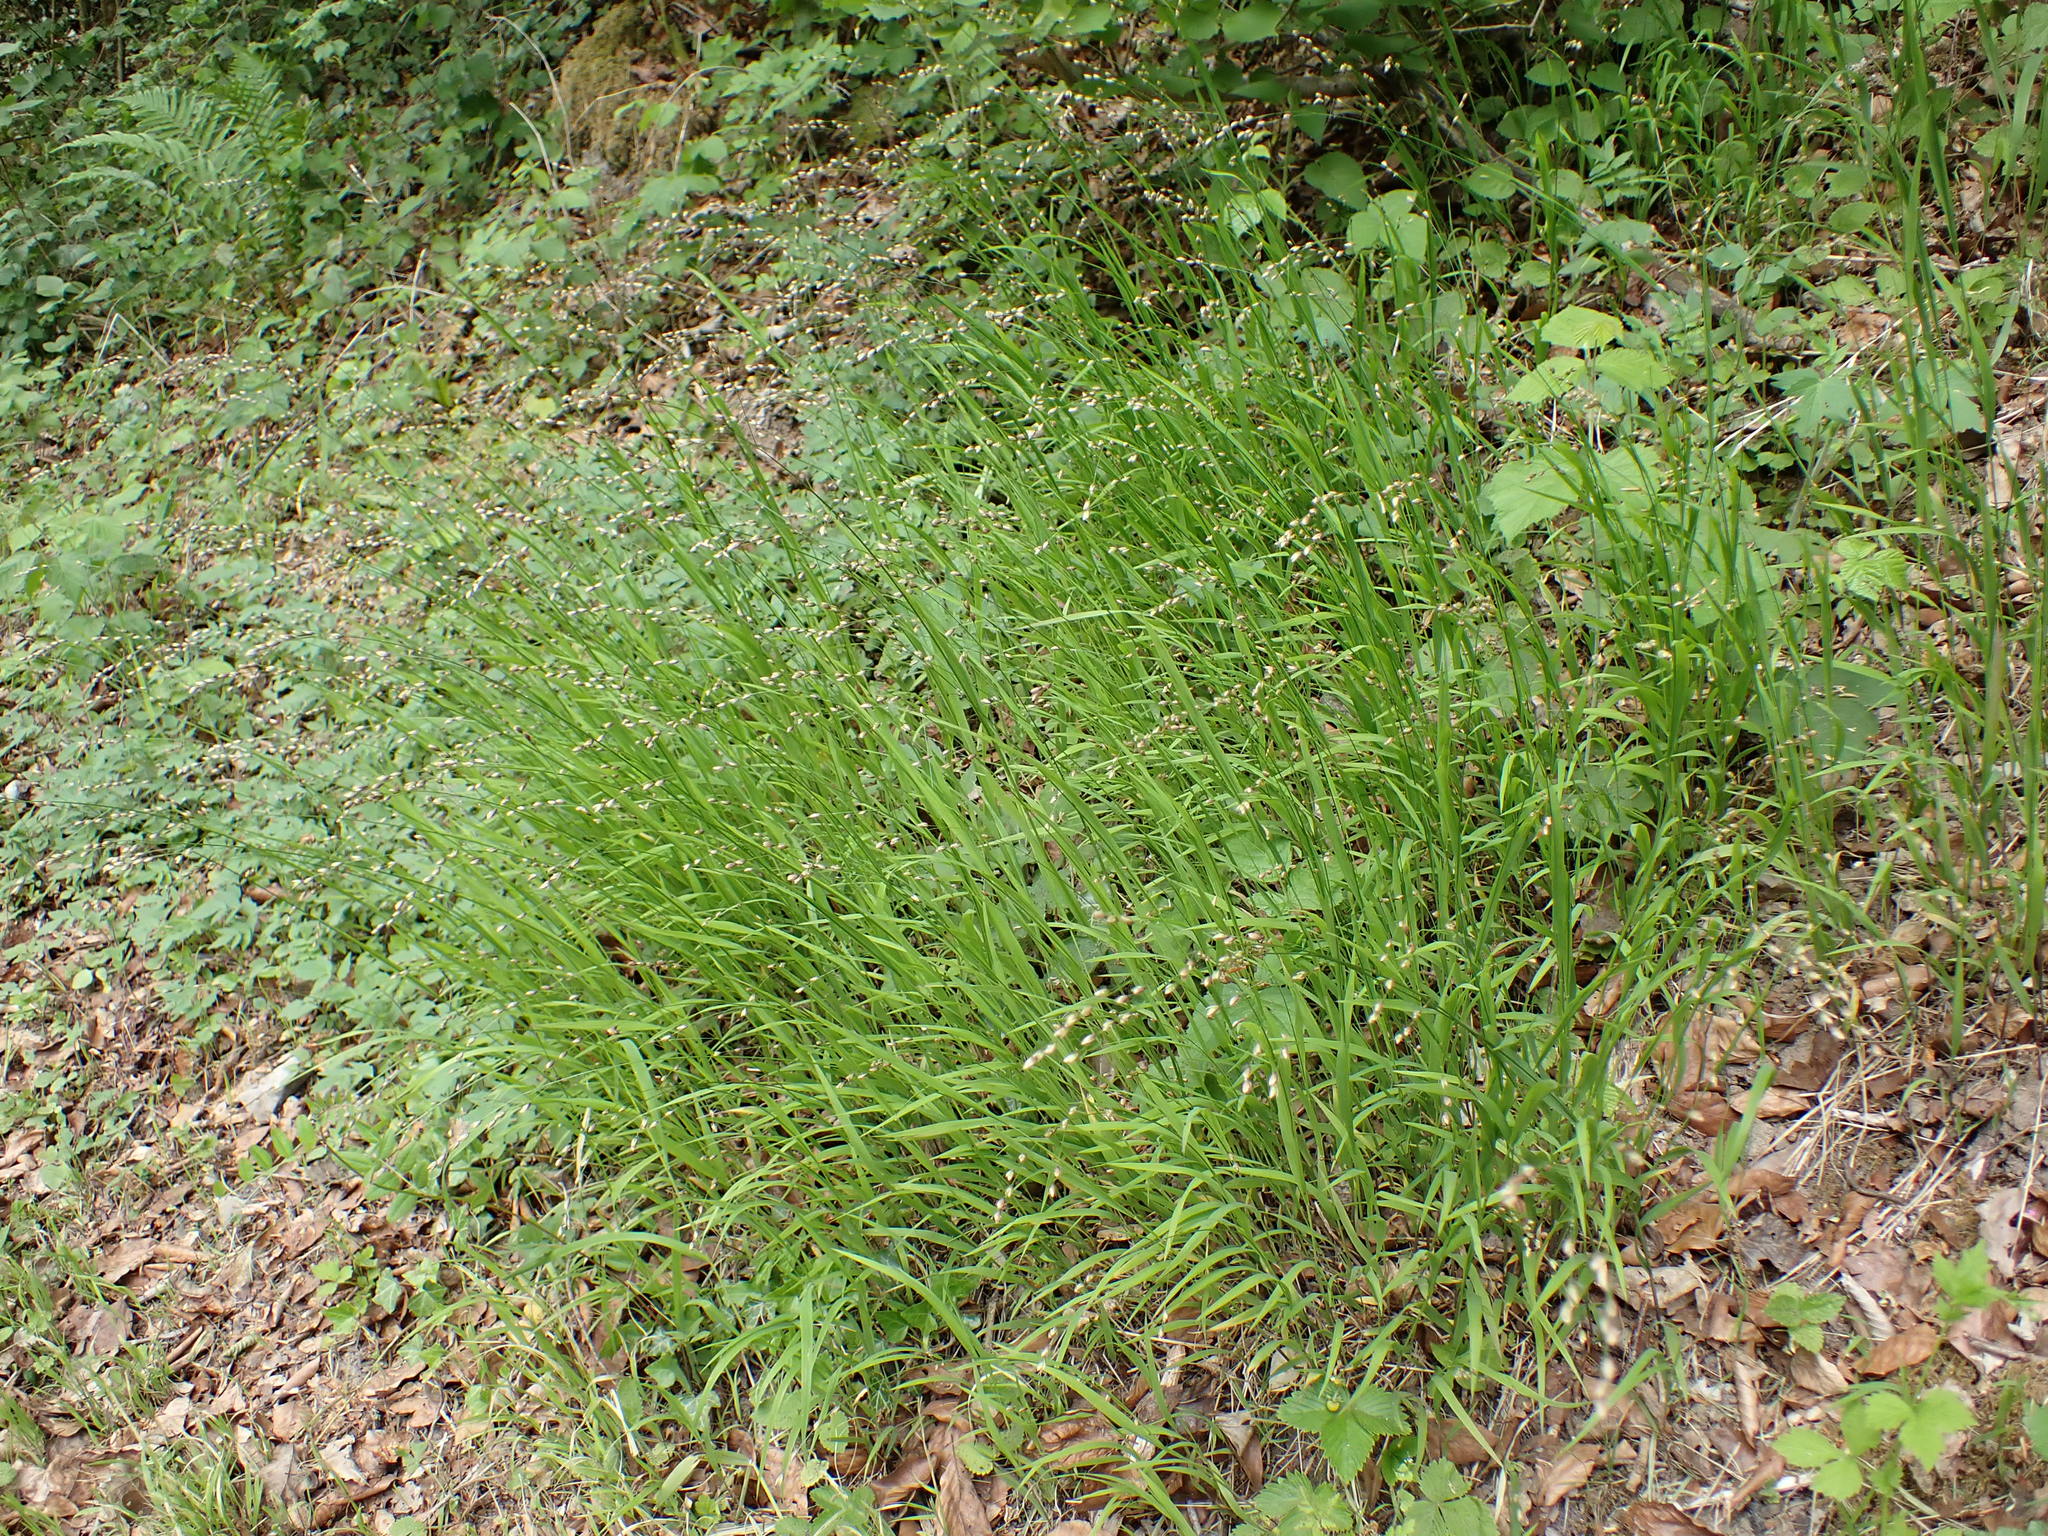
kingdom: Plantae
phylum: Tracheophyta
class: Liliopsida
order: Poales
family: Poaceae
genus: Melica
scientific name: Melica uniflora
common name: Wood melick
